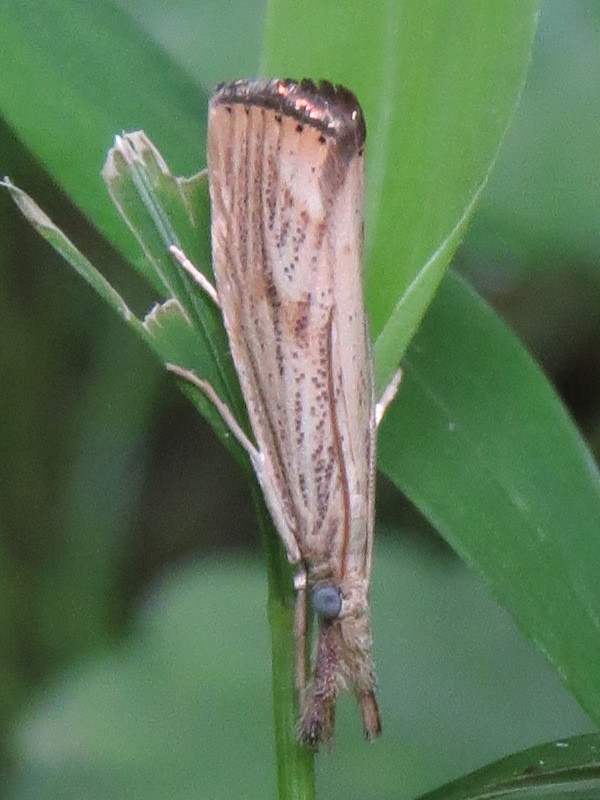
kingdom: Animalia
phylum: Arthropoda
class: Insecta
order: Lepidoptera
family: Crambidae
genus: Agriphila
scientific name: Agriphila ruricolellus
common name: Lesser vagabond sod webworm
